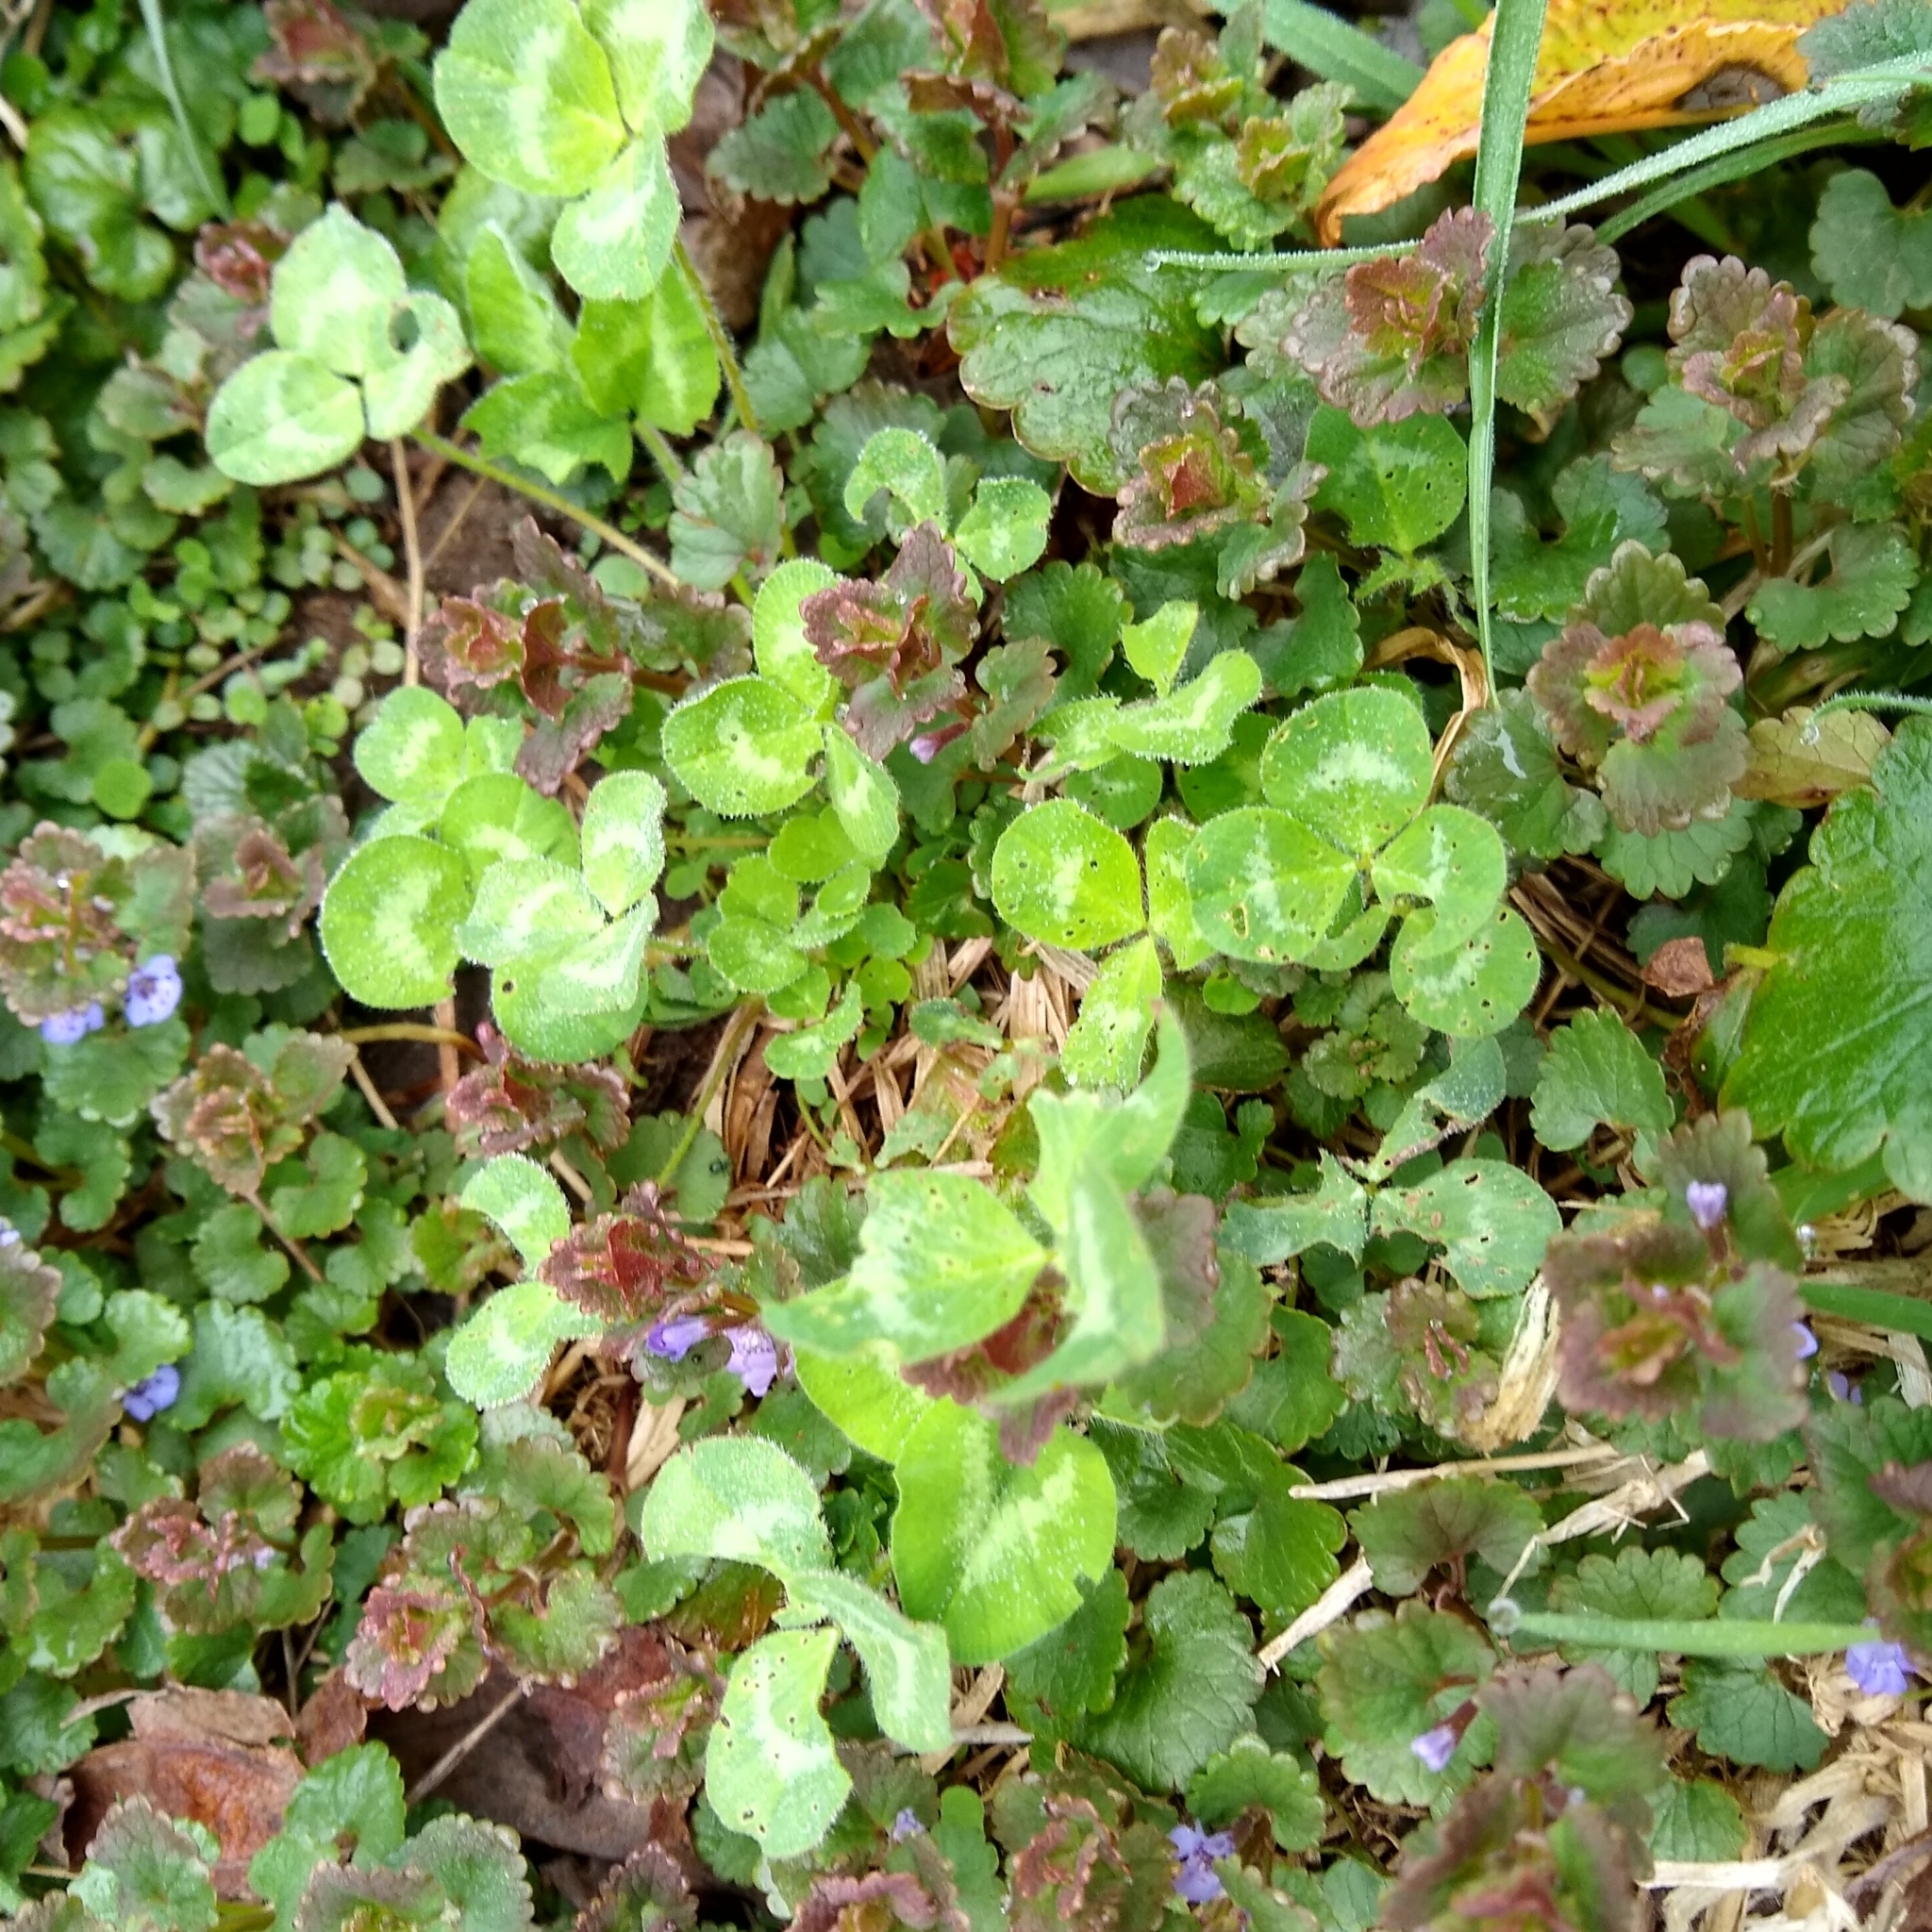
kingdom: Plantae
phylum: Tracheophyta
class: Magnoliopsida
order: Fabales
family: Fabaceae
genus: Trifolium
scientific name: Trifolium pratense
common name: Red clover
